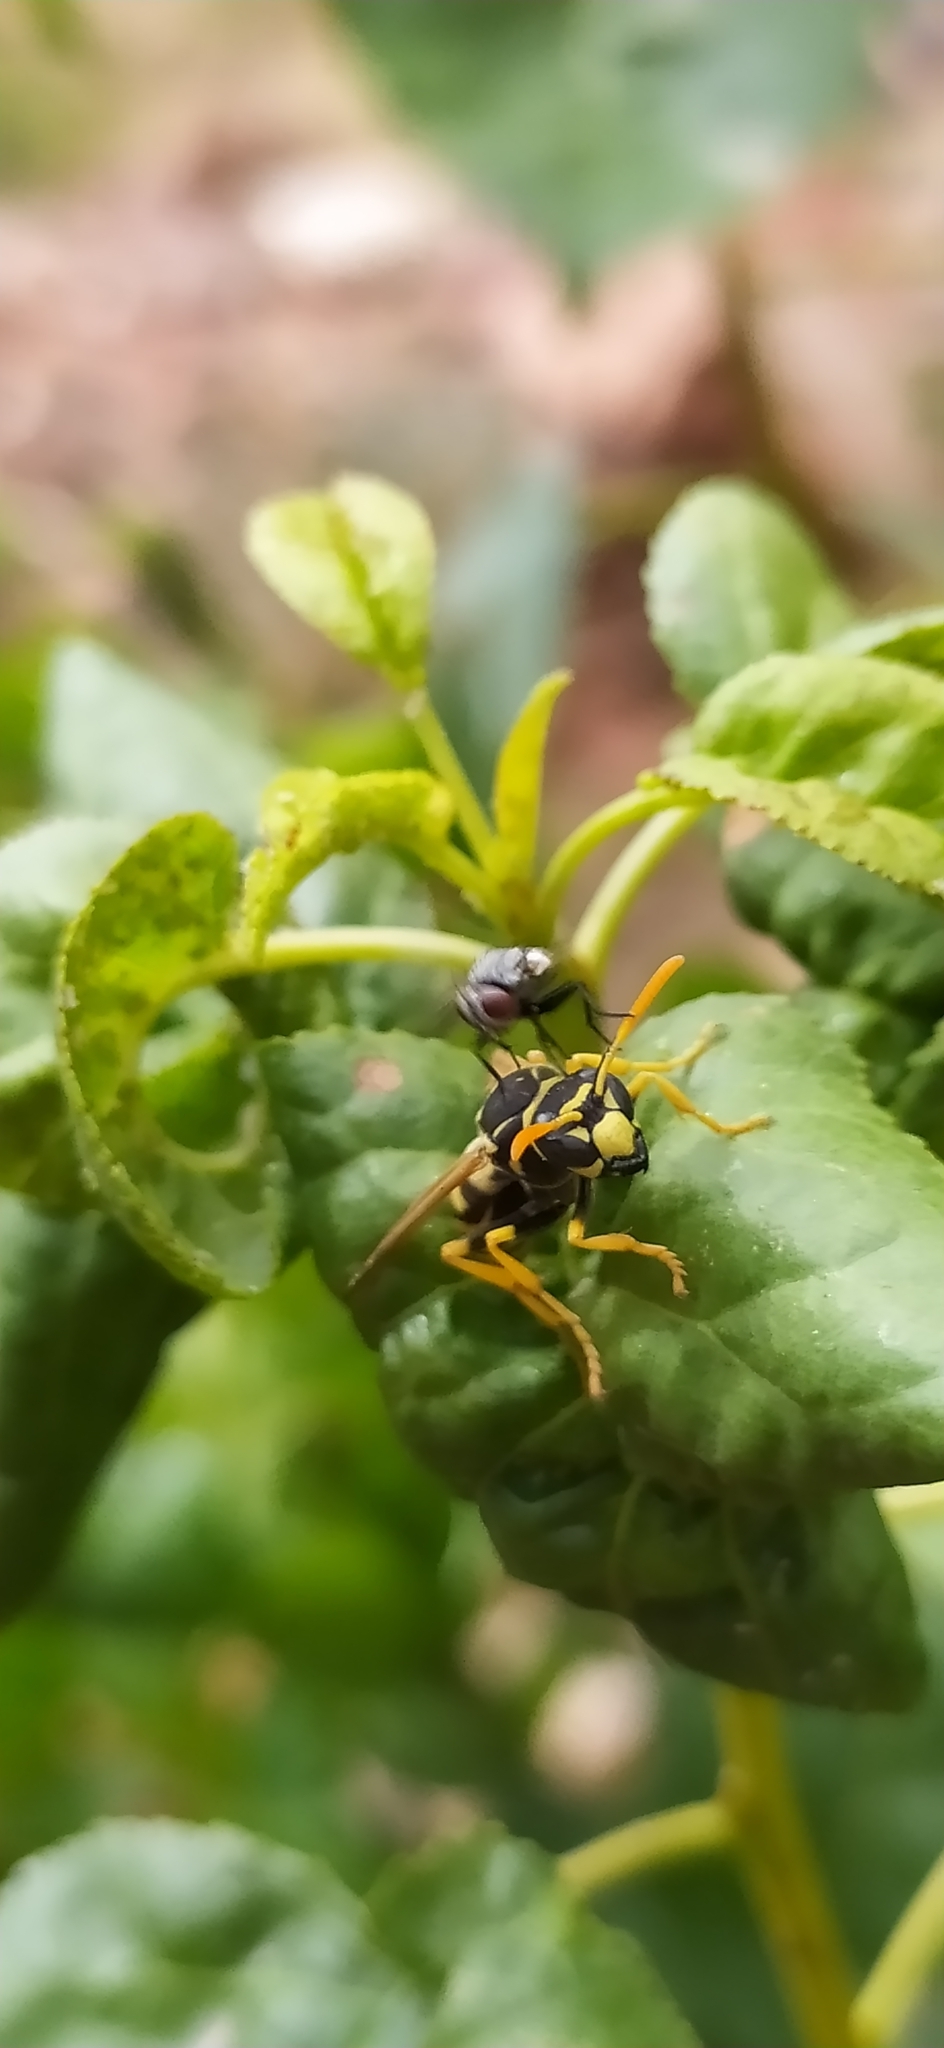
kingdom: Animalia
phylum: Arthropoda
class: Insecta
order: Hymenoptera
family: Eumenidae
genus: Polistes
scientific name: Polistes dominula
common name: Paper wasp
